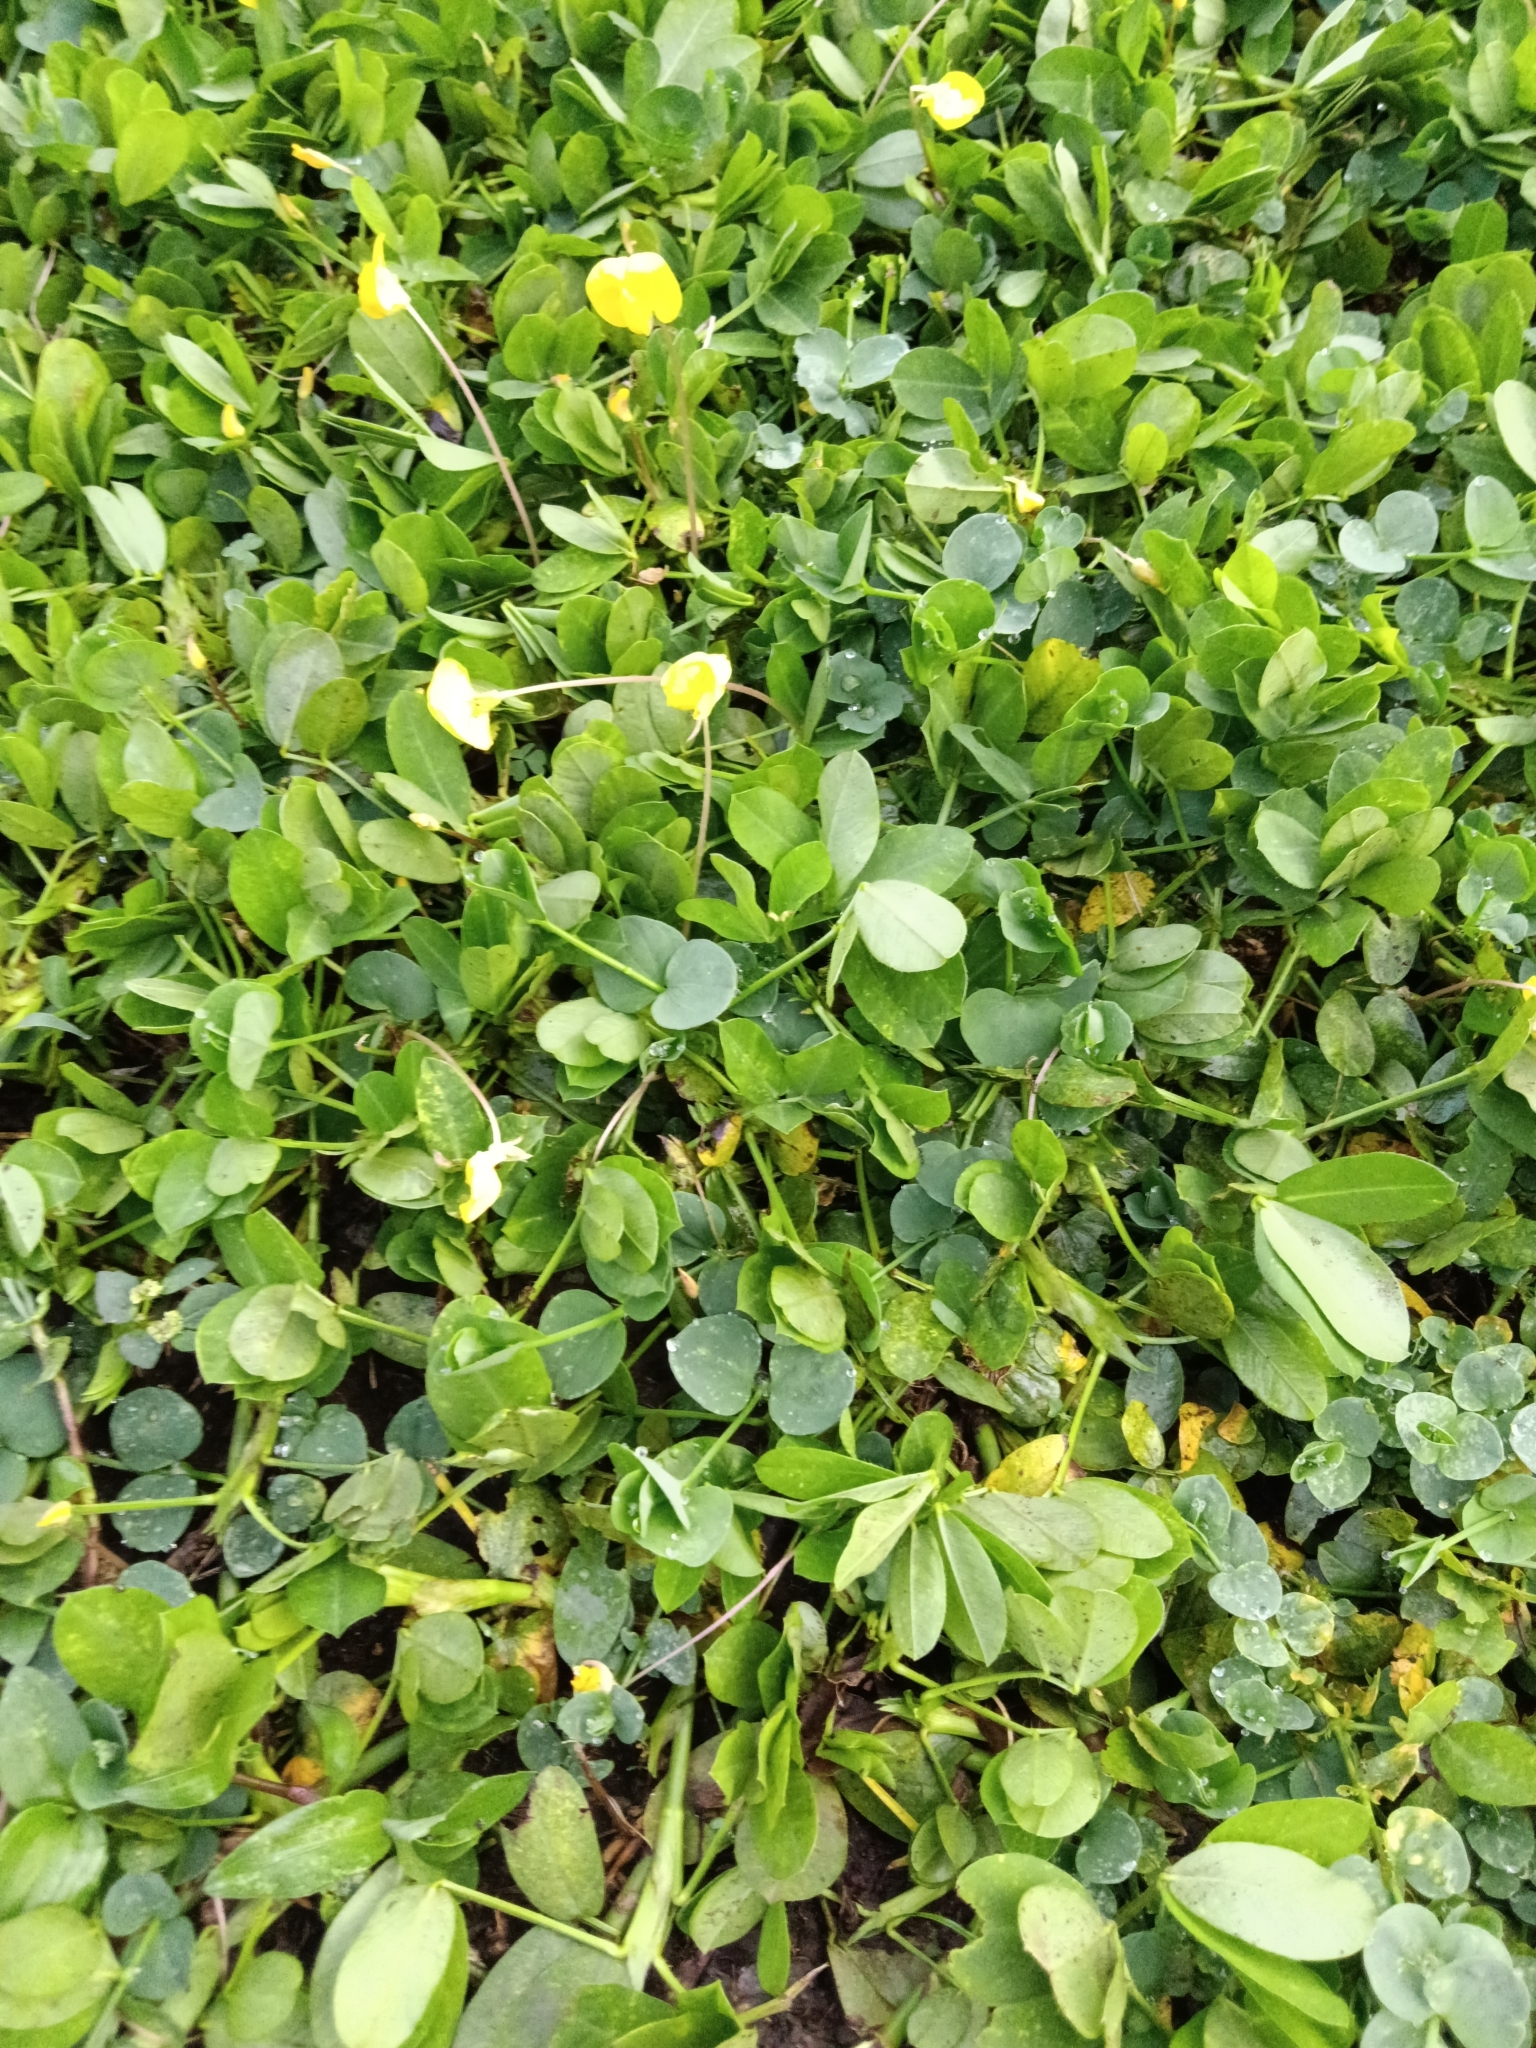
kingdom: Plantae
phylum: Tracheophyta
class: Magnoliopsida
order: Fabales
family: Fabaceae
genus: Arachis
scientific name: Arachis pintoi
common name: Pinto peanut
